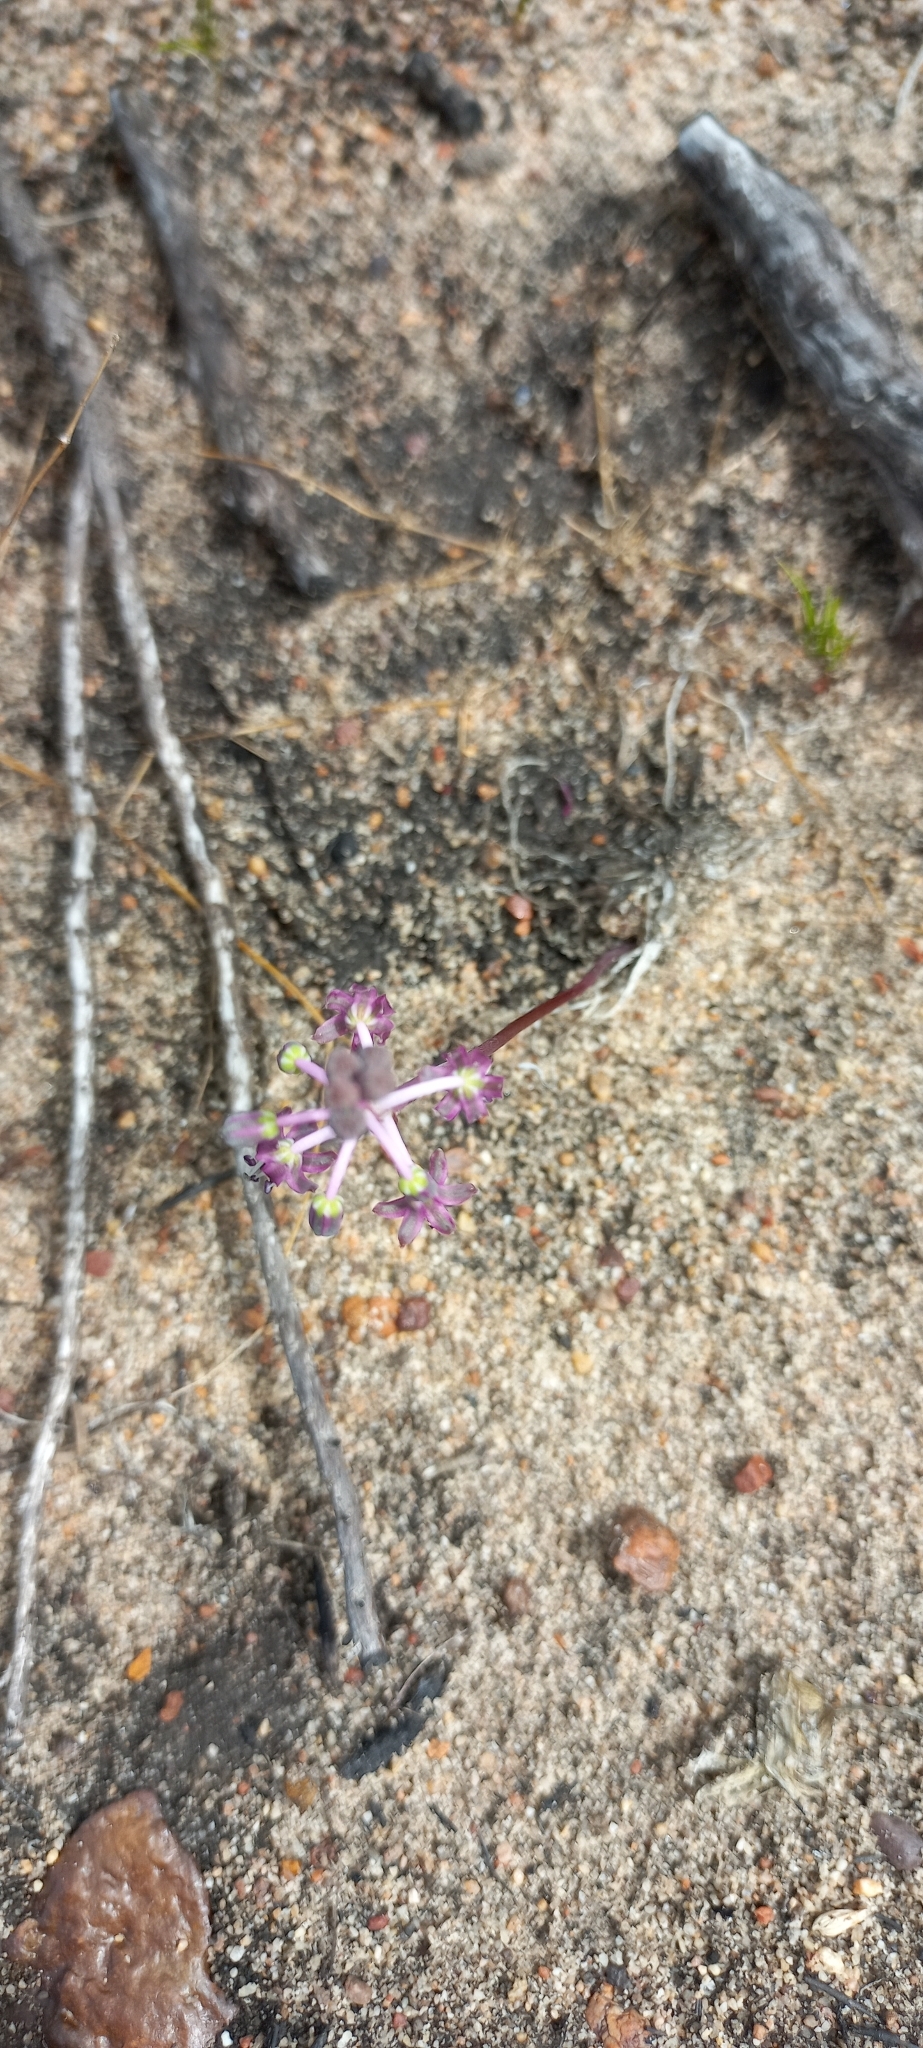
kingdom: Plantae
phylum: Tracheophyta
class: Liliopsida
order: Asparagales
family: Asparagaceae
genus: Ledebouria
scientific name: Ledebouria ovalifolia
